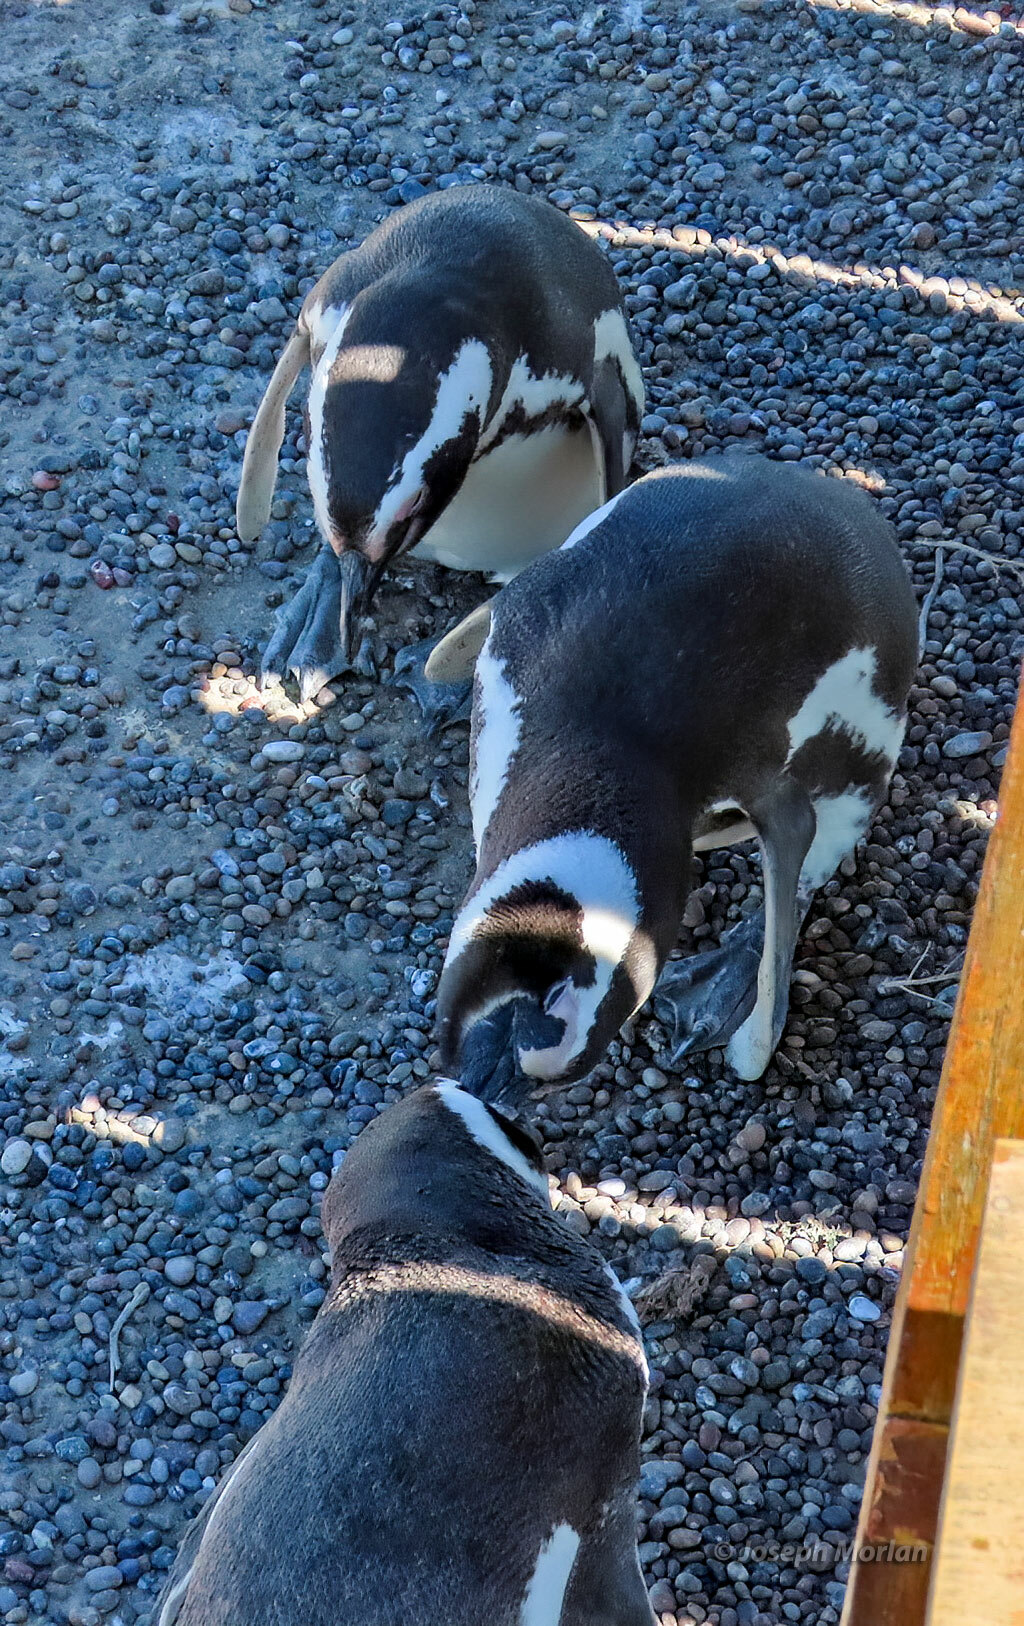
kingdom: Animalia
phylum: Chordata
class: Aves
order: Sphenisciformes
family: Spheniscidae
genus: Spheniscus
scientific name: Spheniscus magellanicus
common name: Magellanic penguin
